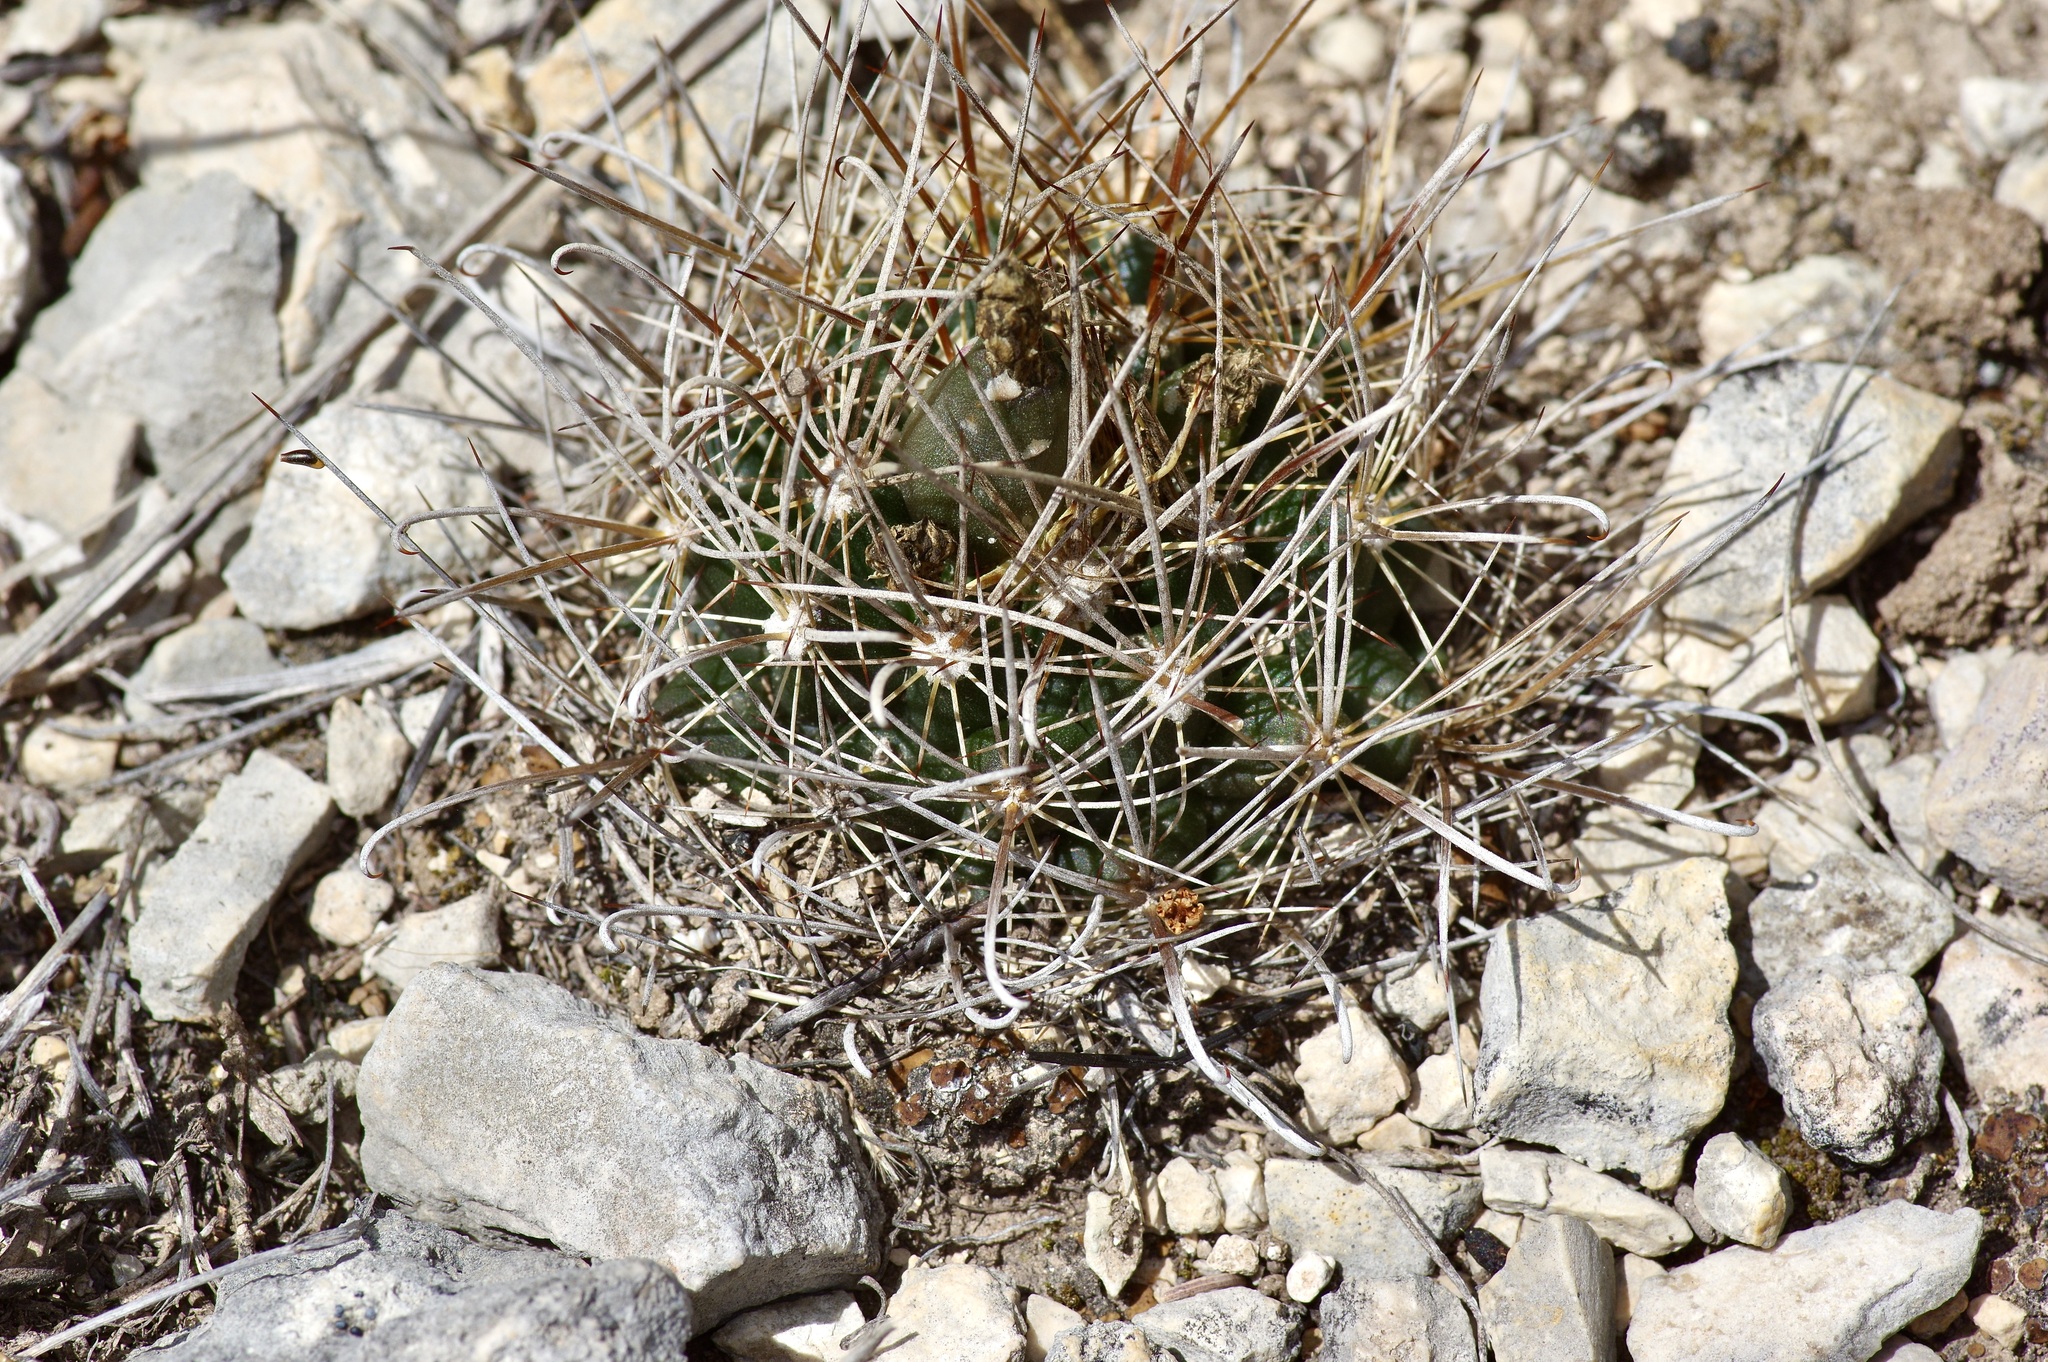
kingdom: Plantae
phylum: Tracheophyta
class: Magnoliopsida
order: Caryophyllales
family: Cactaceae
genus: Sclerocactus
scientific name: Sclerocactus brevihamatus
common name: Engelmann's fishhook cactus
